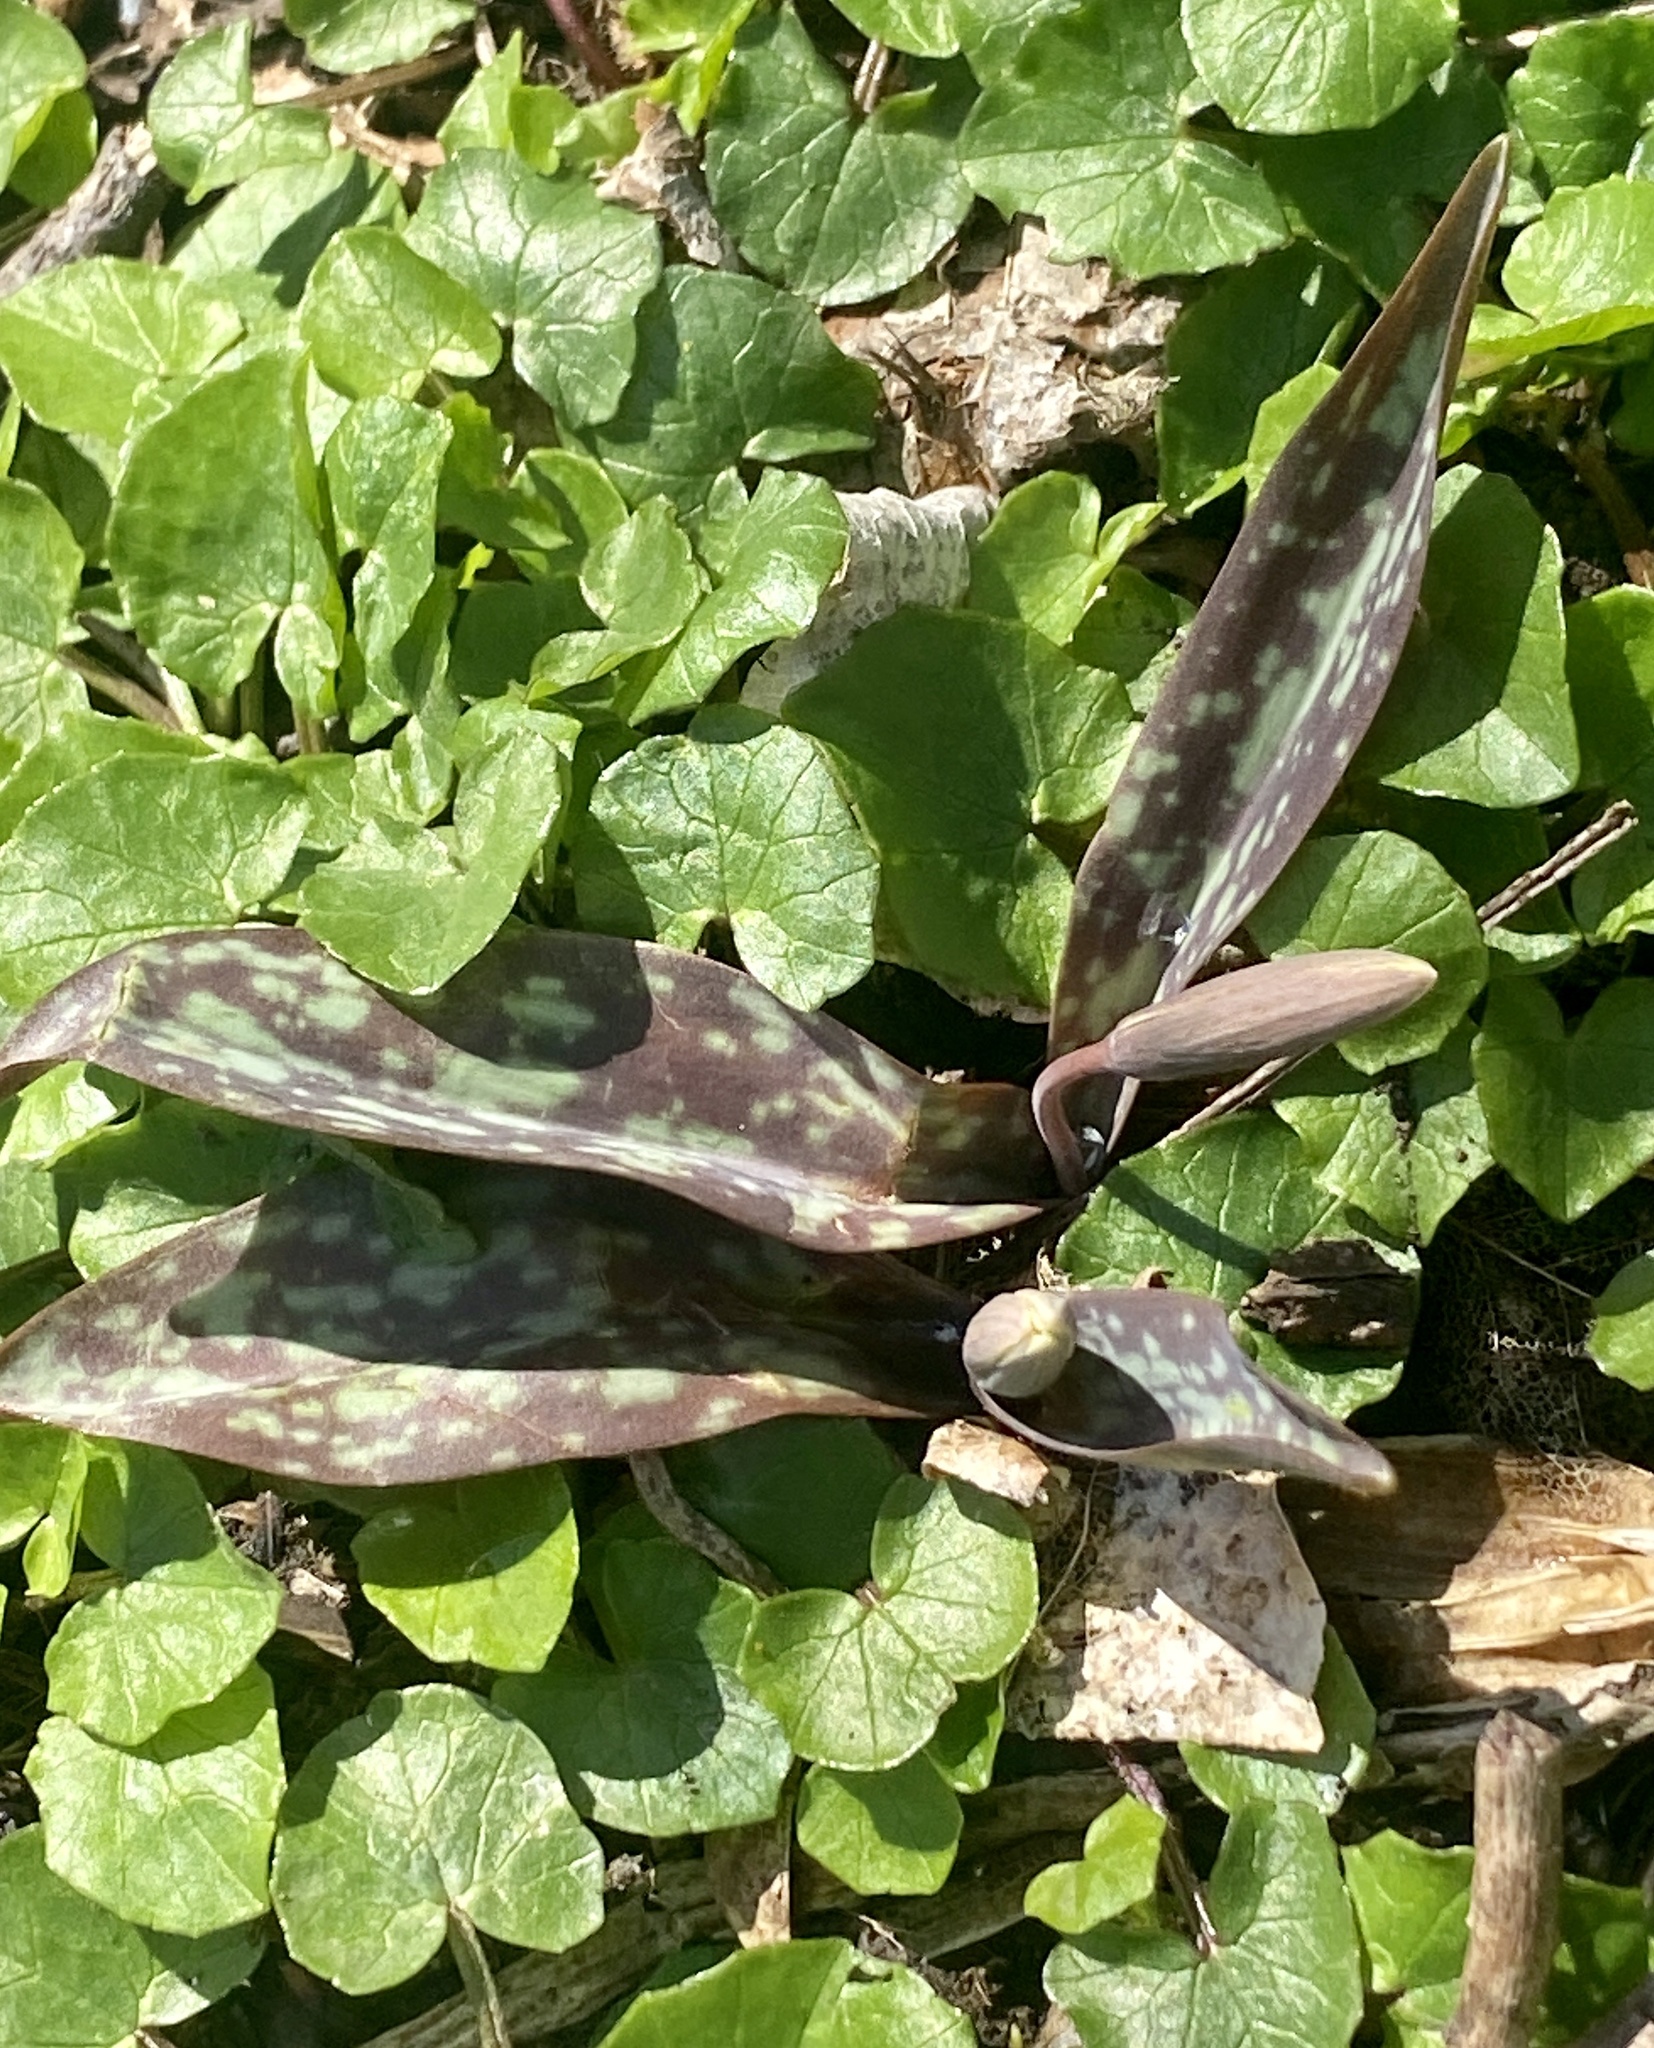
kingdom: Plantae
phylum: Tracheophyta
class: Liliopsida
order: Liliales
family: Liliaceae
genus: Erythronium
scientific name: Erythronium americanum
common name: Yellow adder's-tongue
